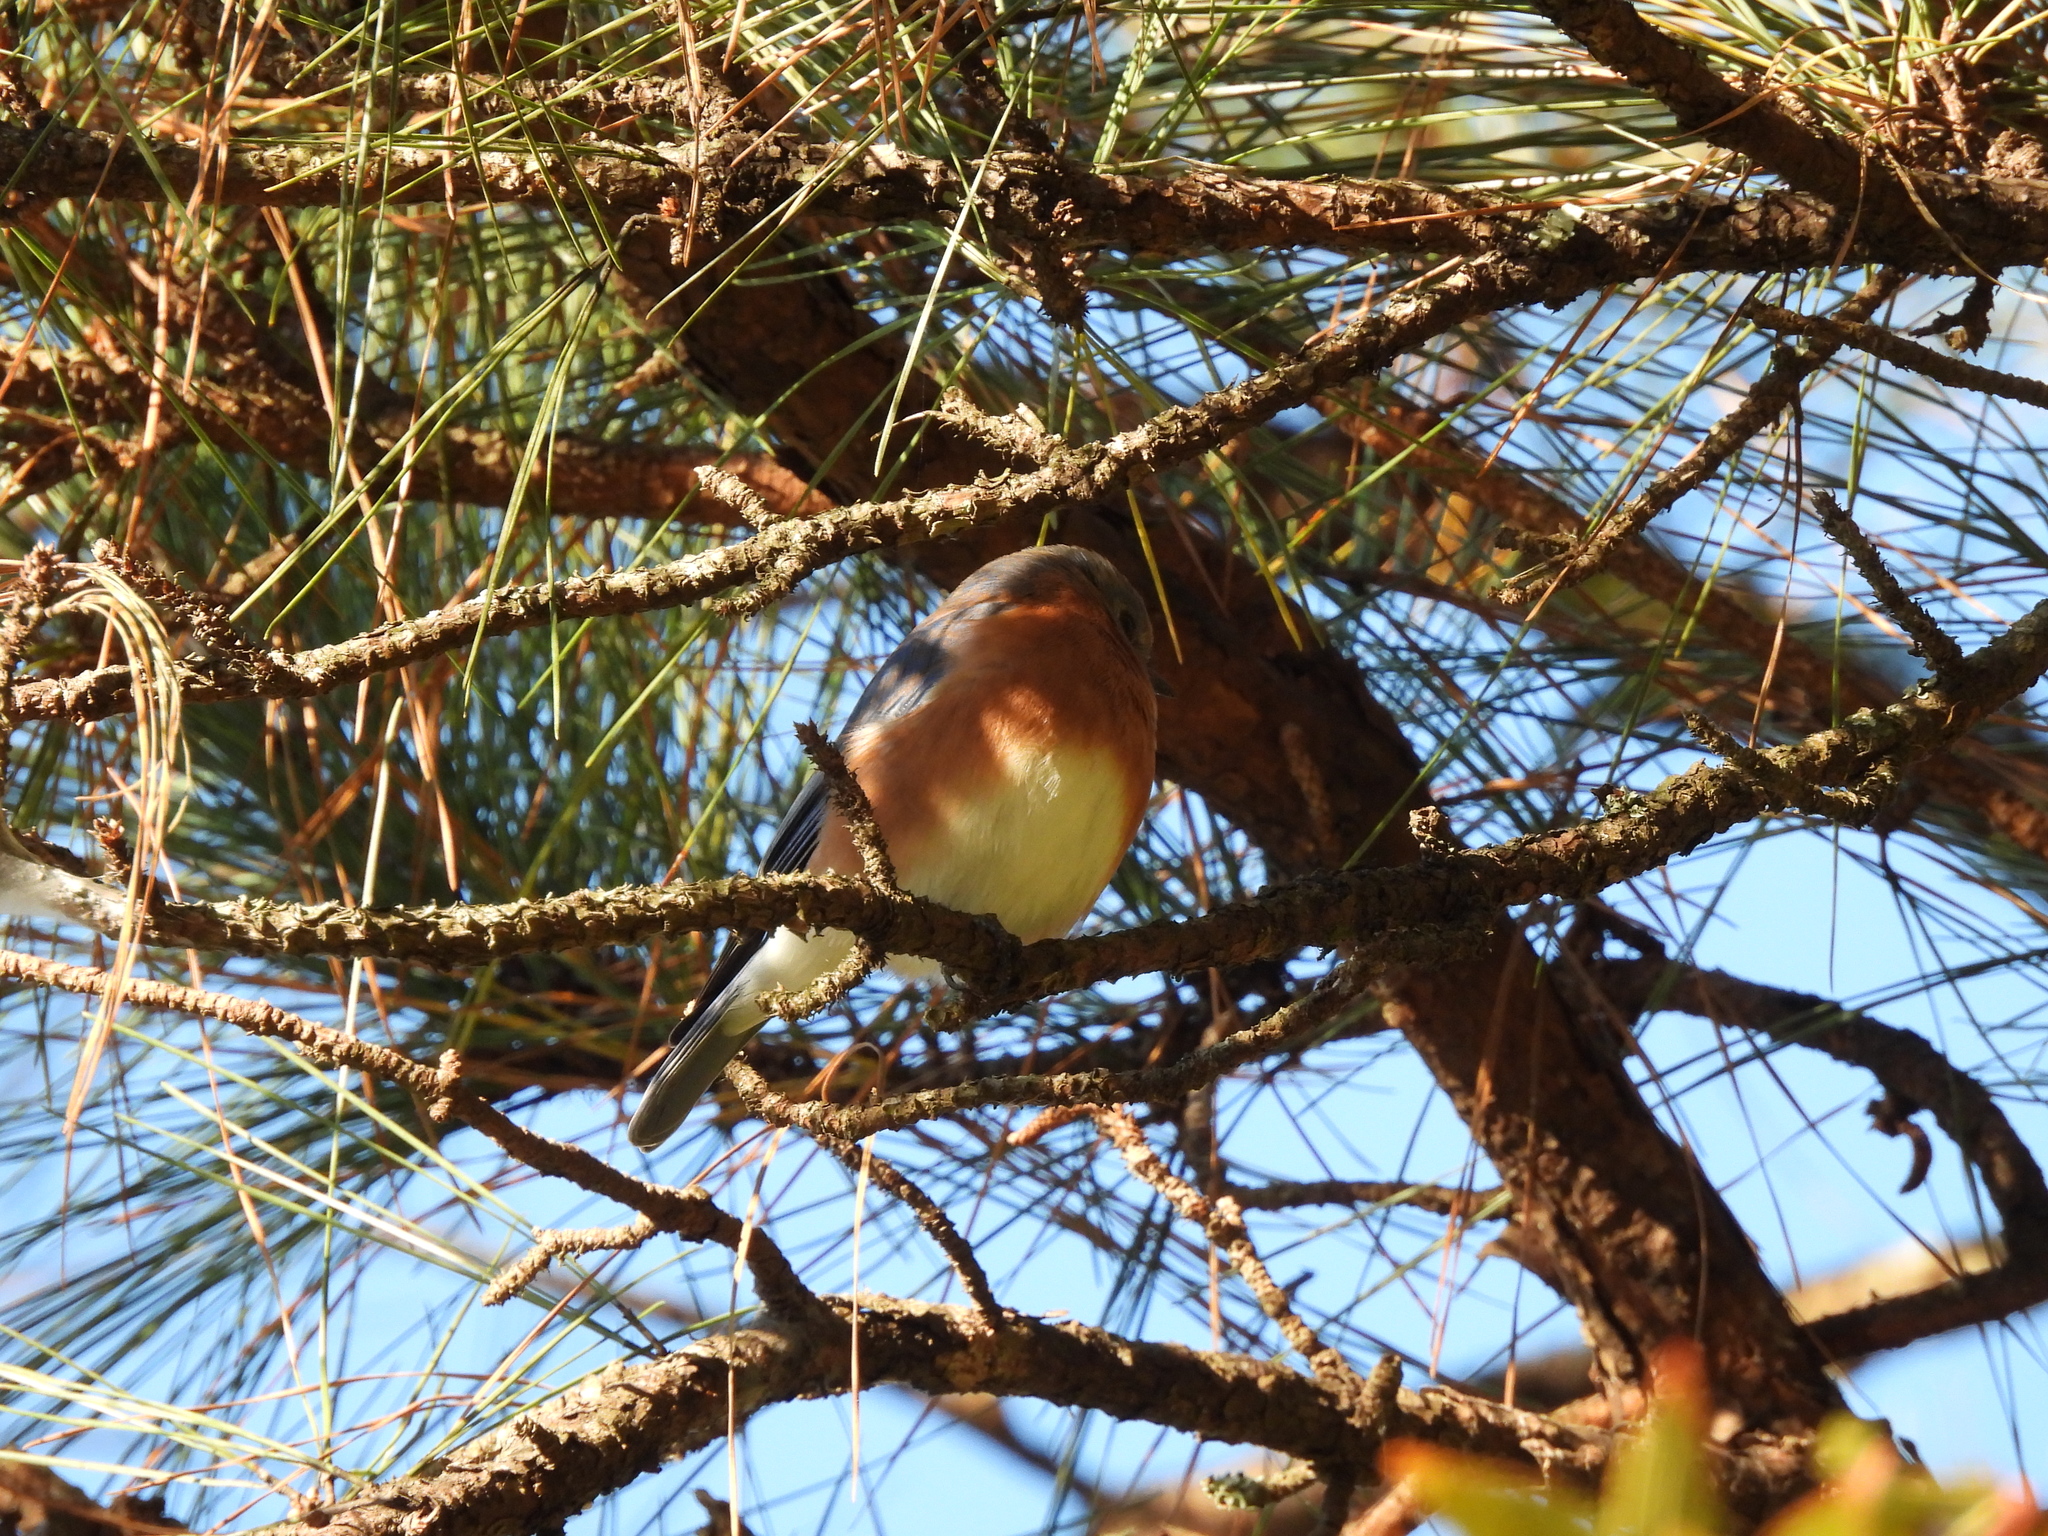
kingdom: Animalia
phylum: Chordata
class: Aves
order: Passeriformes
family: Turdidae
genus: Sialia
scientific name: Sialia sialis
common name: Eastern bluebird
